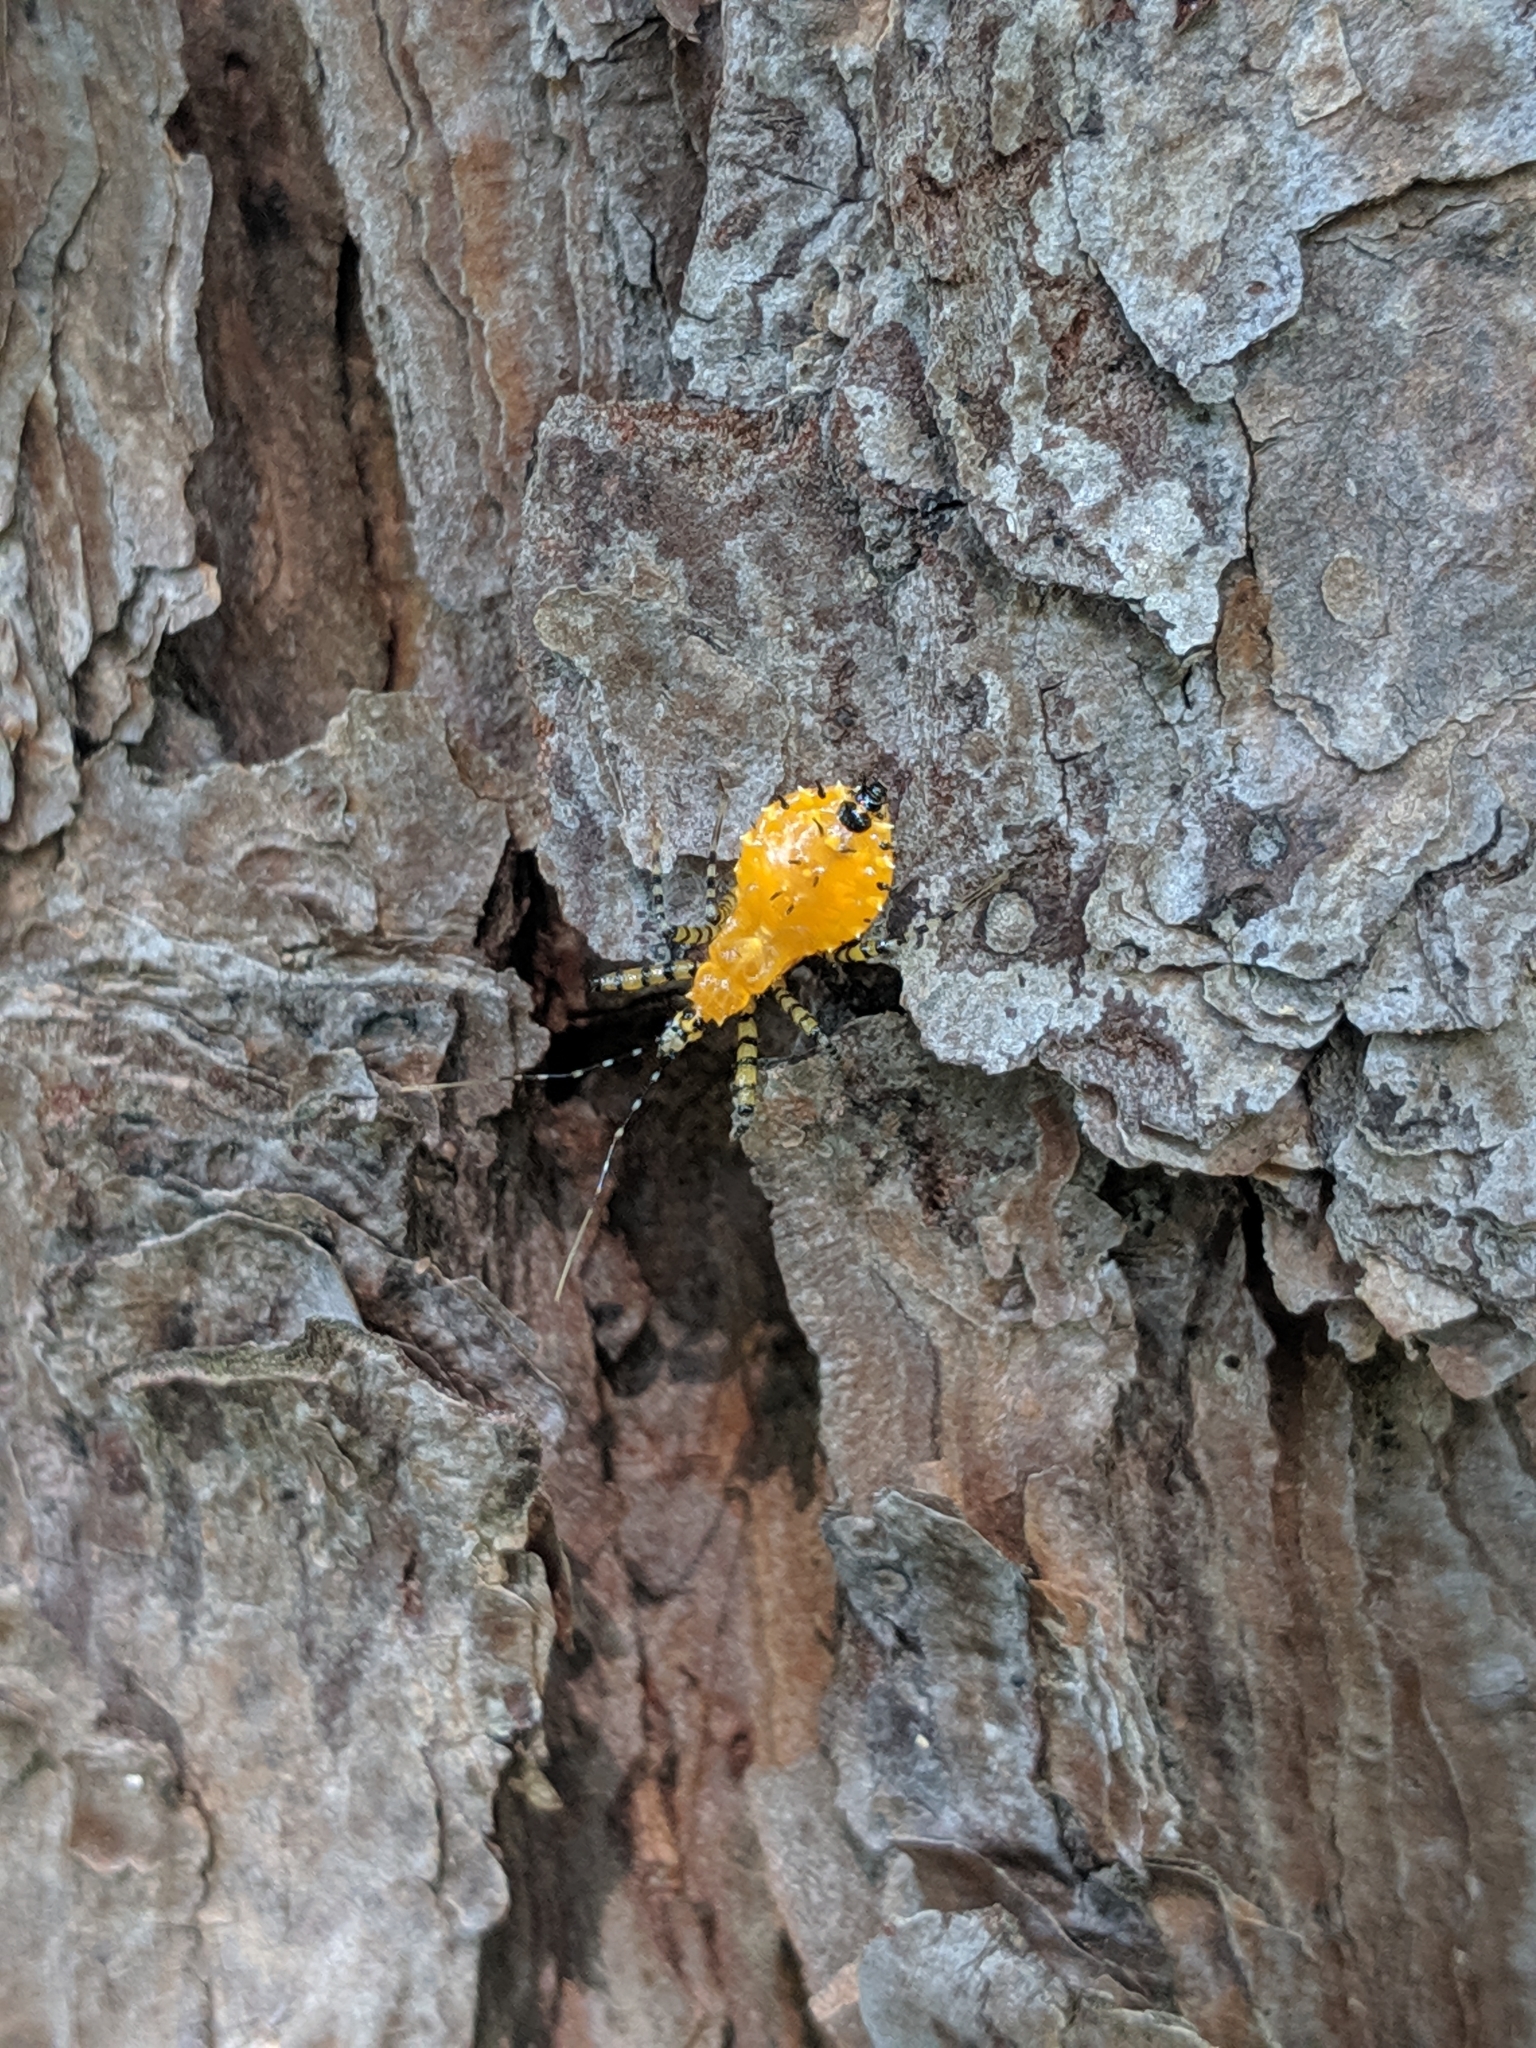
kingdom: Animalia
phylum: Arthropoda
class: Insecta
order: Hemiptera
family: Reduviidae
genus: Pselliopus
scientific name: Pselliopus barberi
